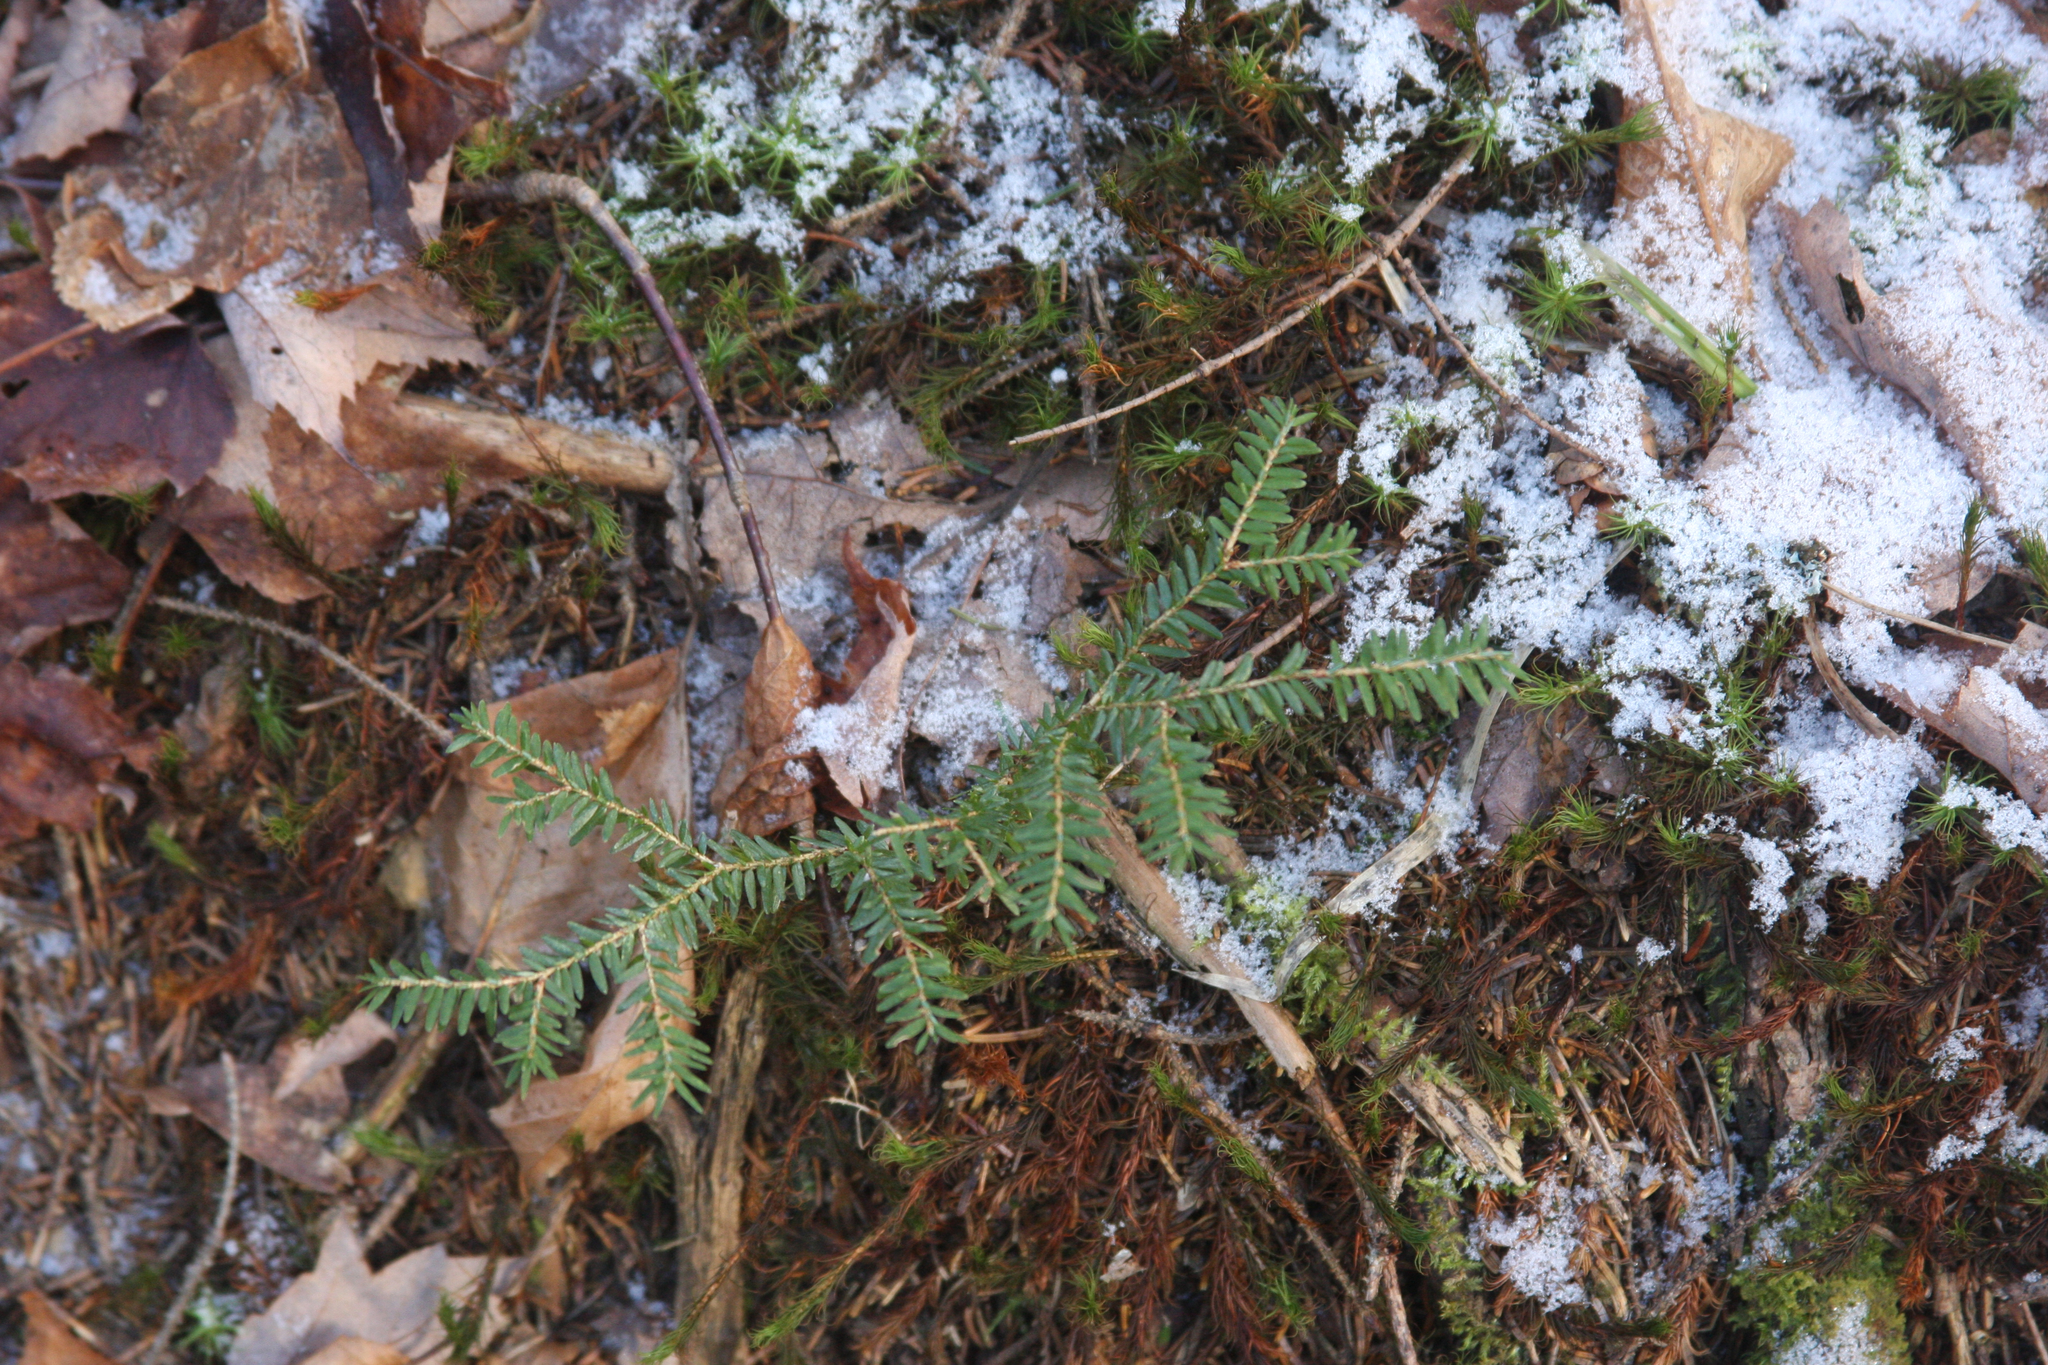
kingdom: Plantae
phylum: Tracheophyta
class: Pinopsida
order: Pinales
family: Pinaceae
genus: Tsuga
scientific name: Tsuga canadensis
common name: Eastern hemlock
